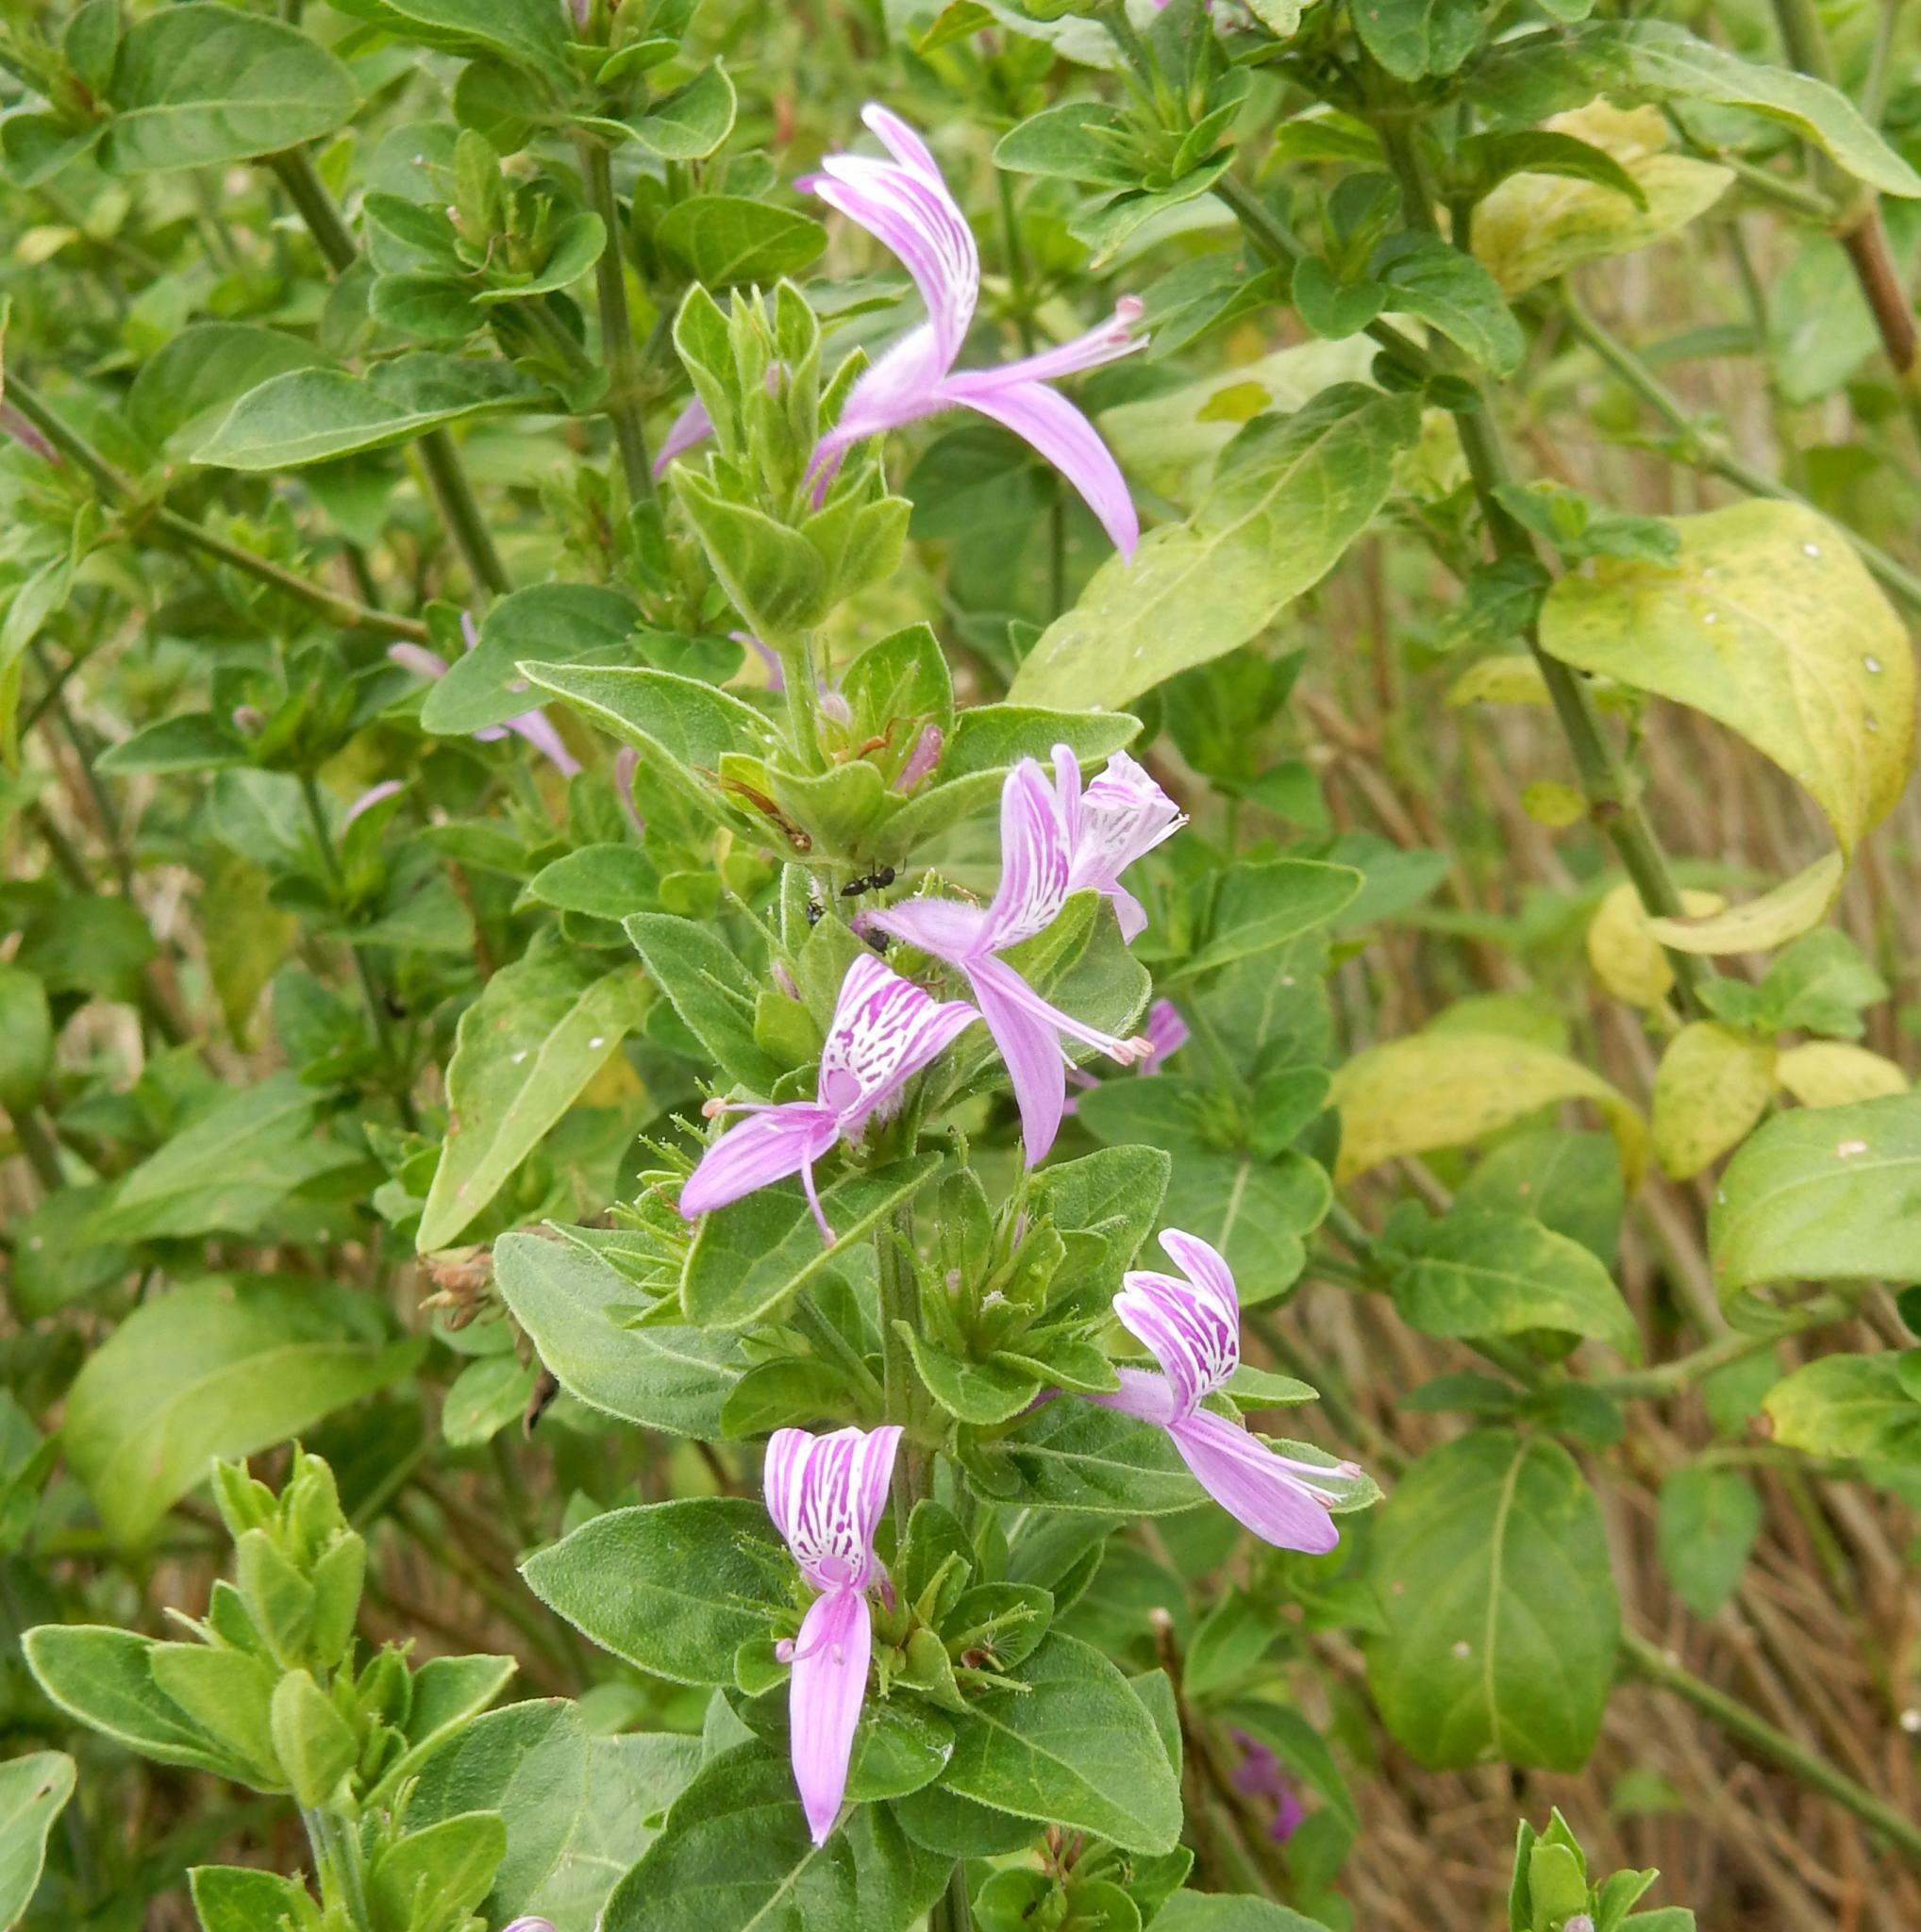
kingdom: Plantae
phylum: Tracheophyta
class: Magnoliopsida
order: Lamiales
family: Acanthaceae
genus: Hypoestes
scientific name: Hypoestes aristata
